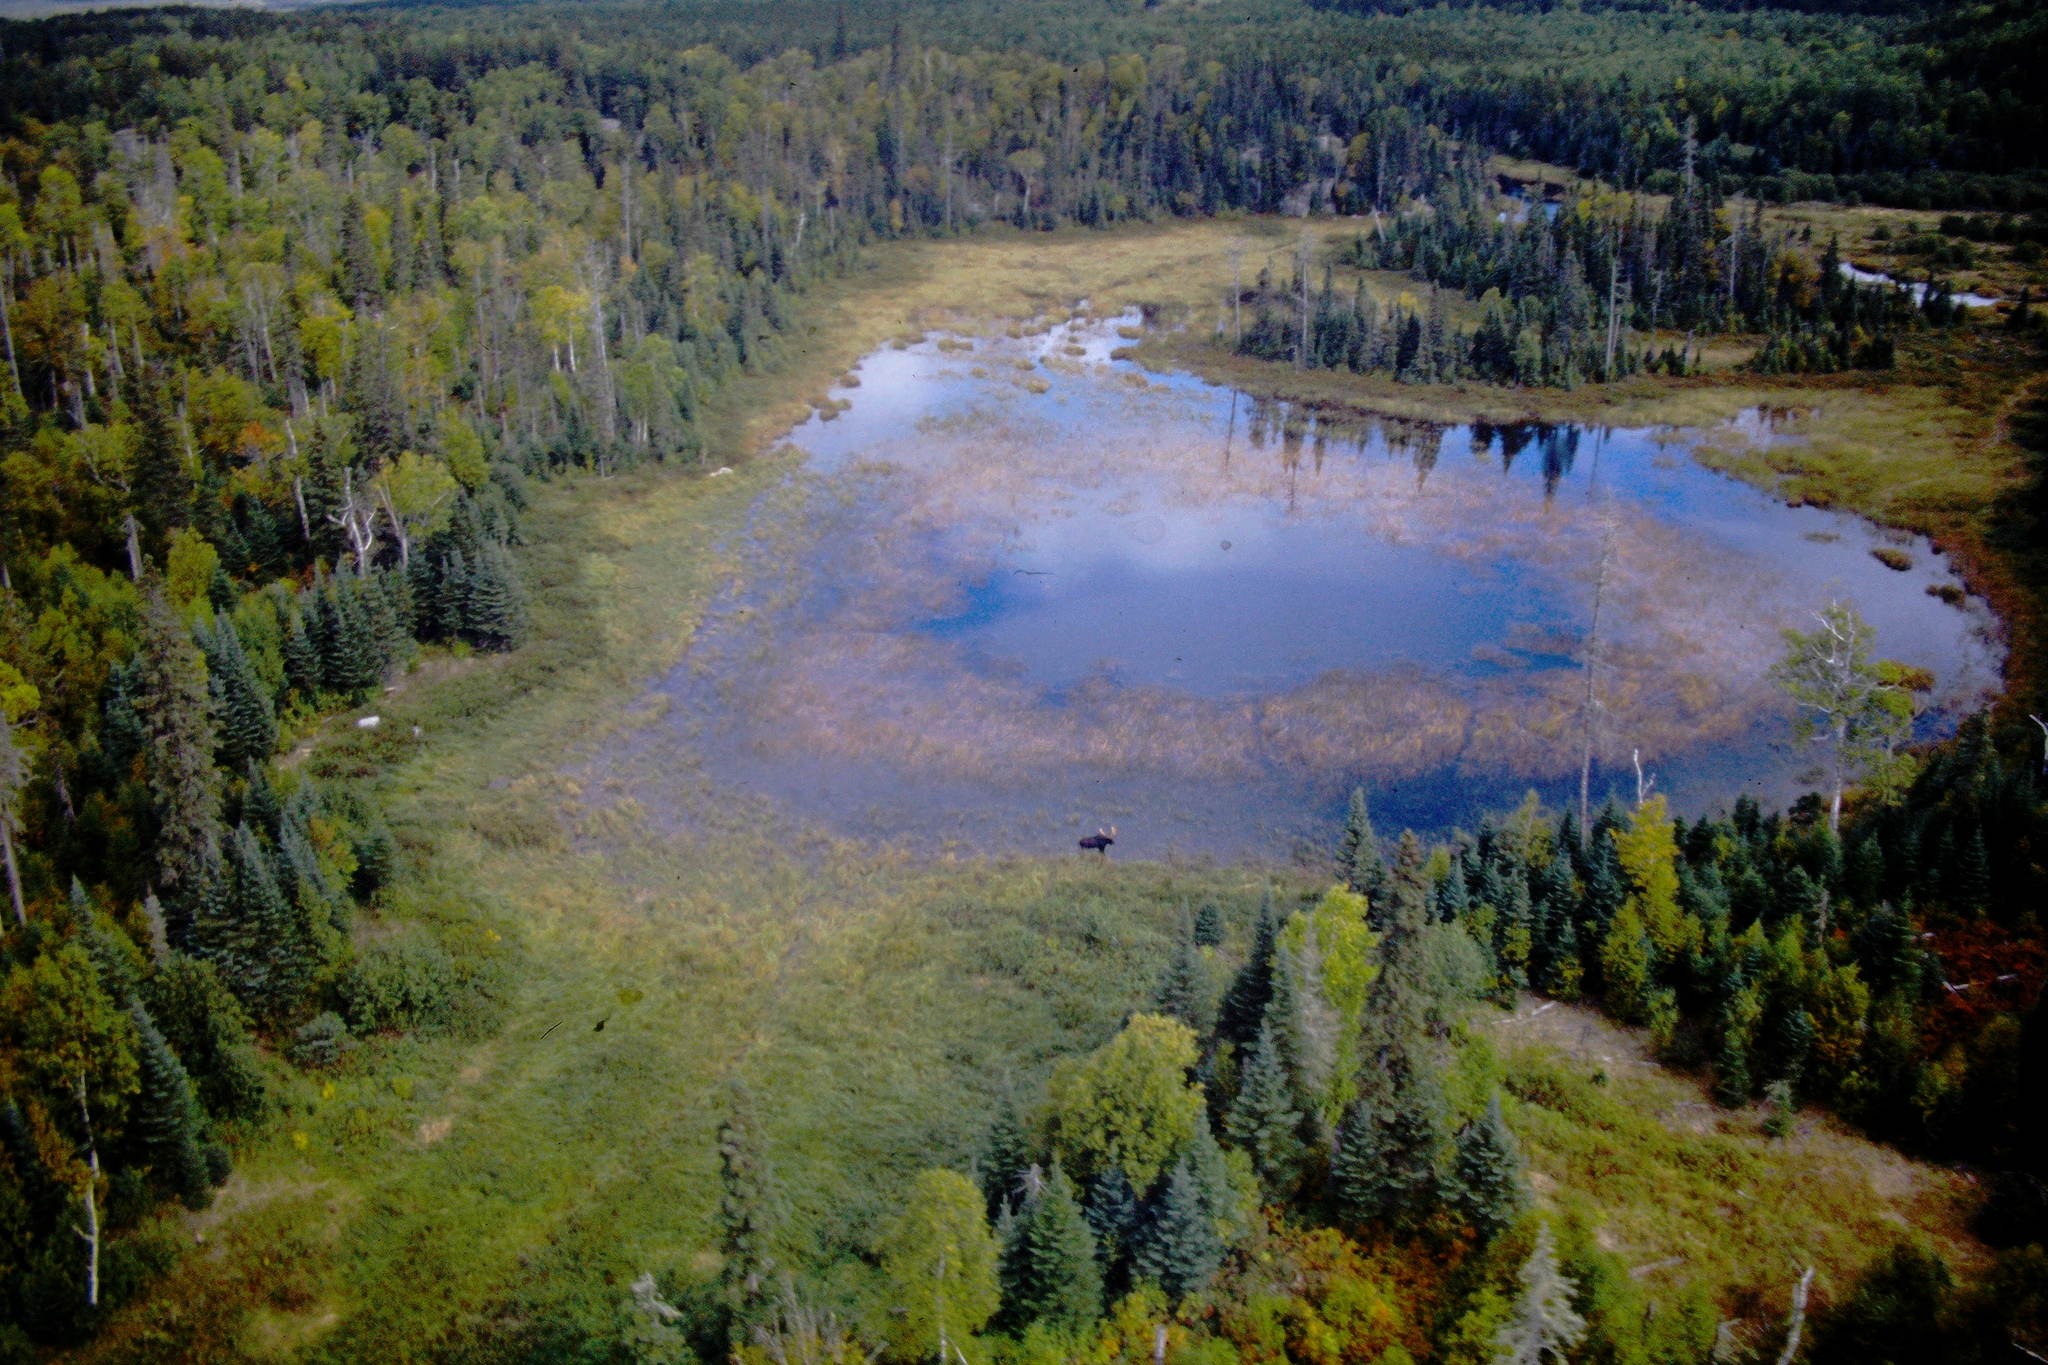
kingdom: Animalia
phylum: Chordata
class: Mammalia
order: Artiodactyla
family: Cervidae
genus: Alces
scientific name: Alces alces
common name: Moose
